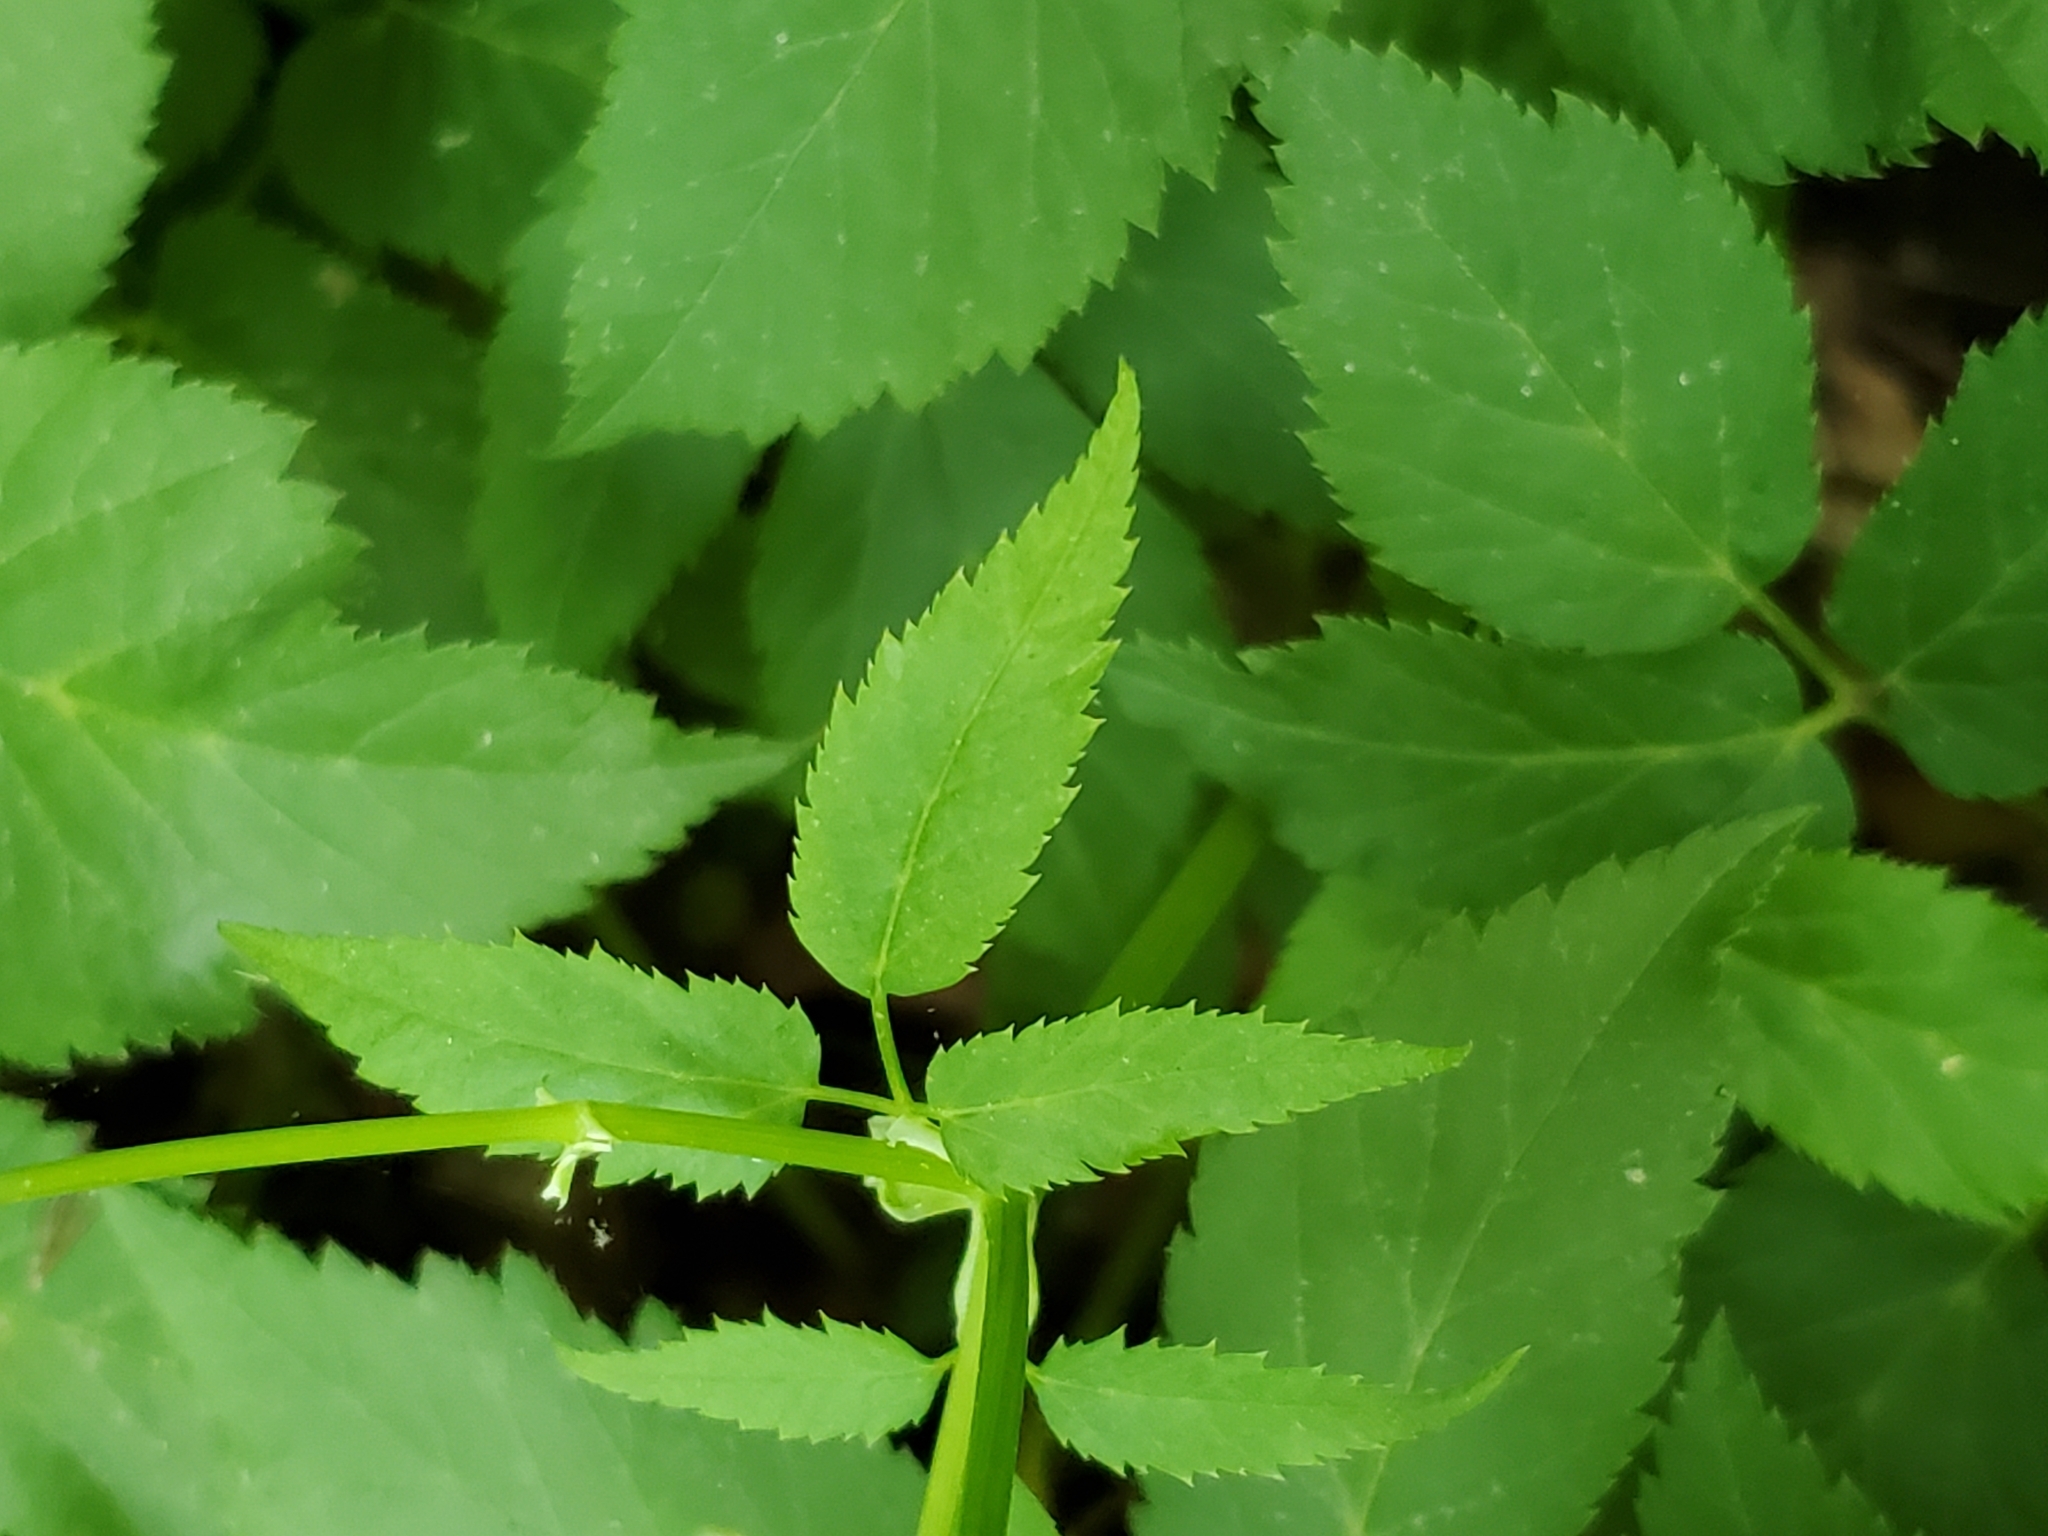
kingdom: Plantae
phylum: Tracheophyta
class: Magnoliopsida
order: Apiales
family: Apiaceae
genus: Aegopodium
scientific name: Aegopodium podagraria
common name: Ground-elder
